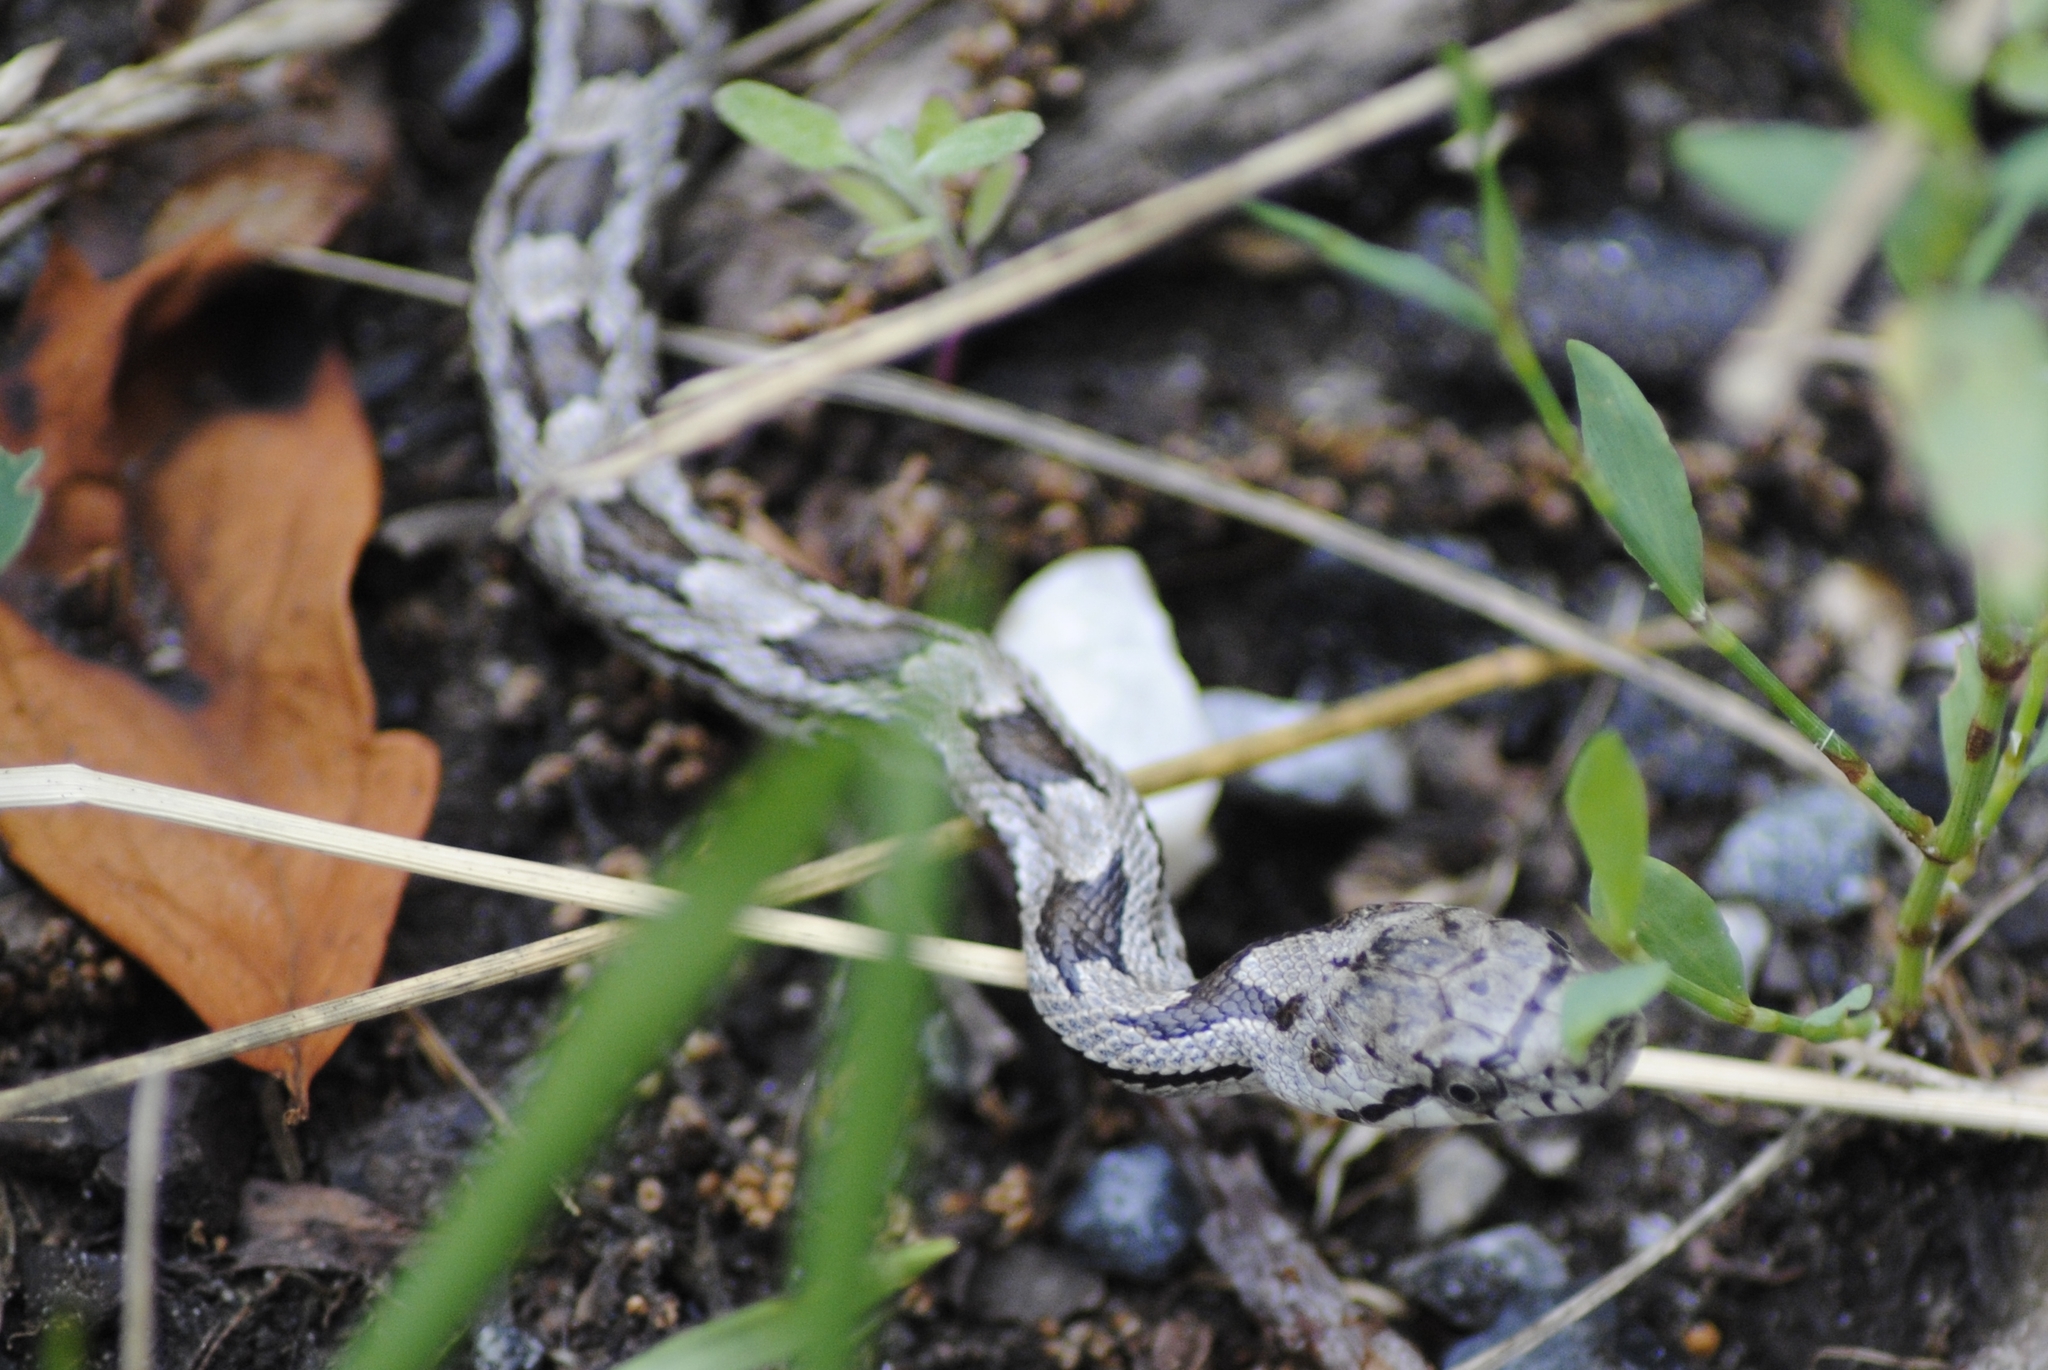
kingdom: Animalia
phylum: Chordata
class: Squamata
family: Colubridae
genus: Pantherophis
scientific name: Pantherophis alleghaniensis
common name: Eastern rat snake
